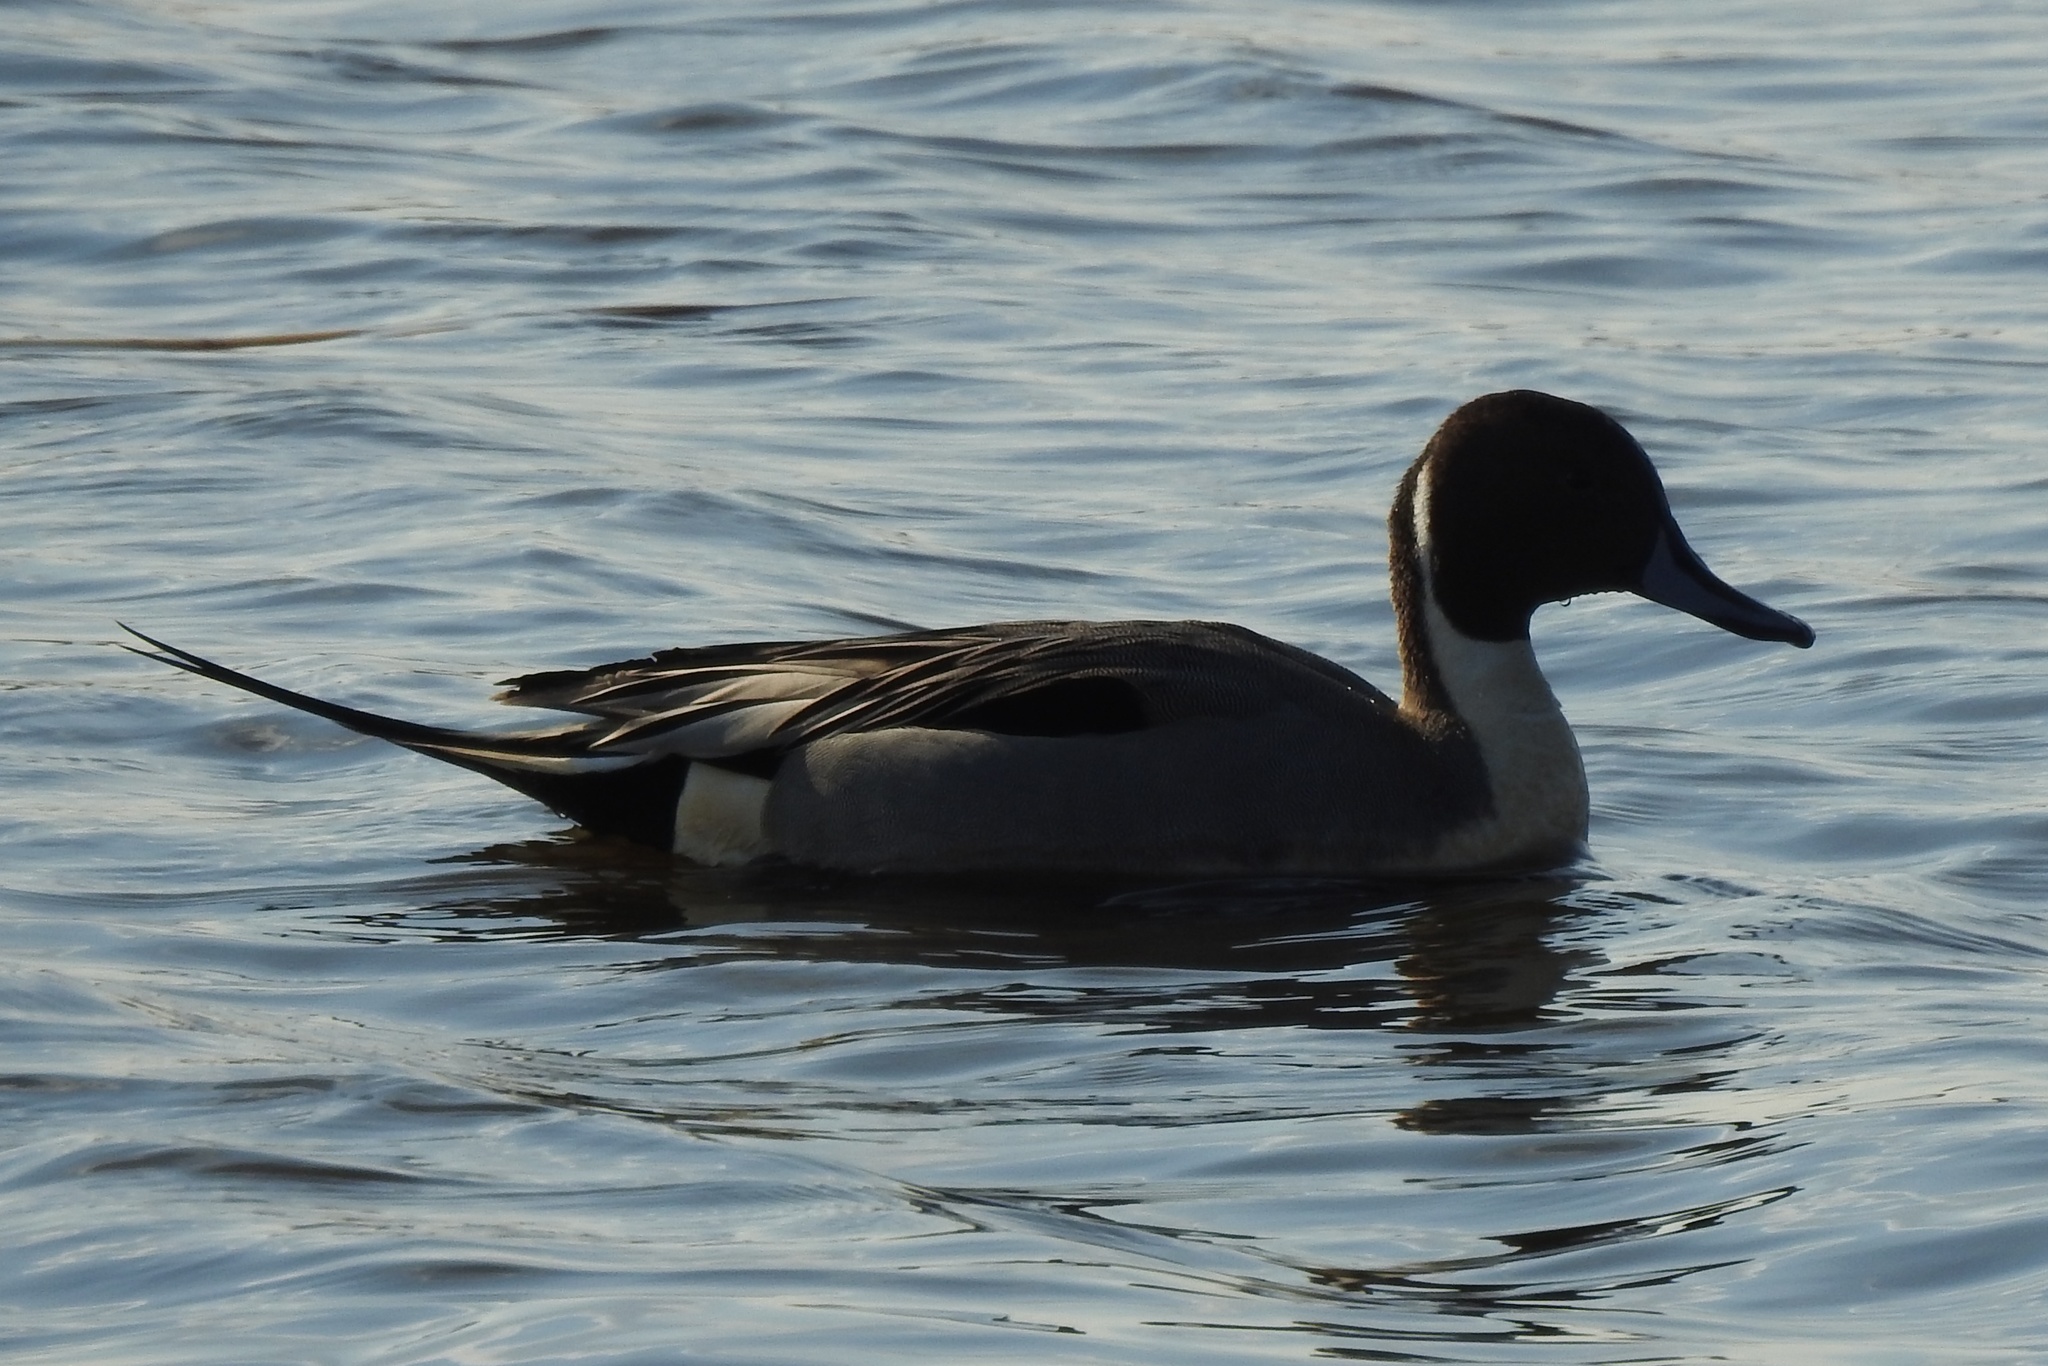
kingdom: Animalia
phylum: Chordata
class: Aves
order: Anseriformes
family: Anatidae
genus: Anas
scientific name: Anas acuta
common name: Northern pintail
